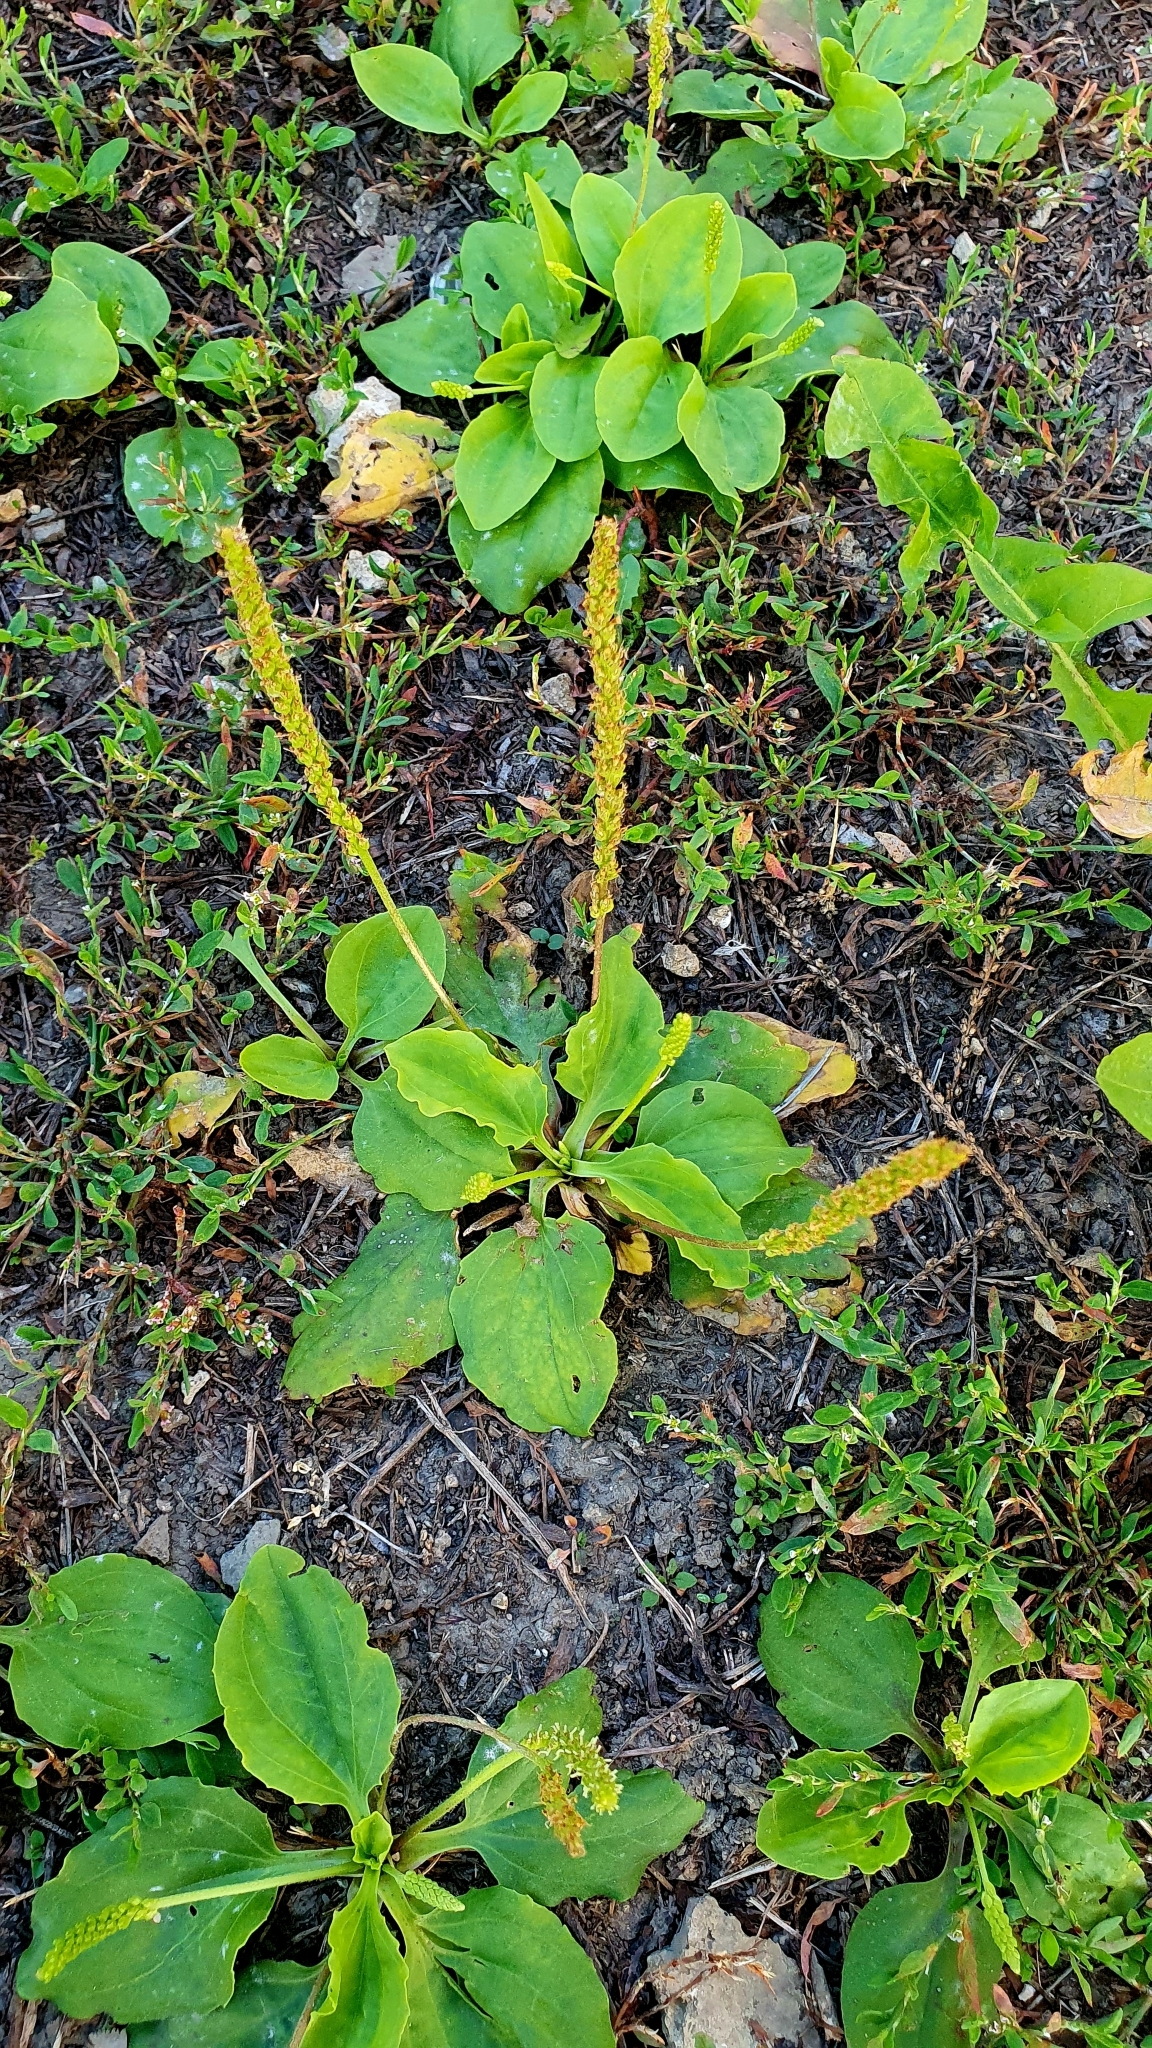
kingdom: Plantae
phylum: Tracheophyta
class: Magnoliopsida
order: Lamiales
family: Plantaginaceae
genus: Plantago
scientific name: Plantago major
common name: Common plantain
